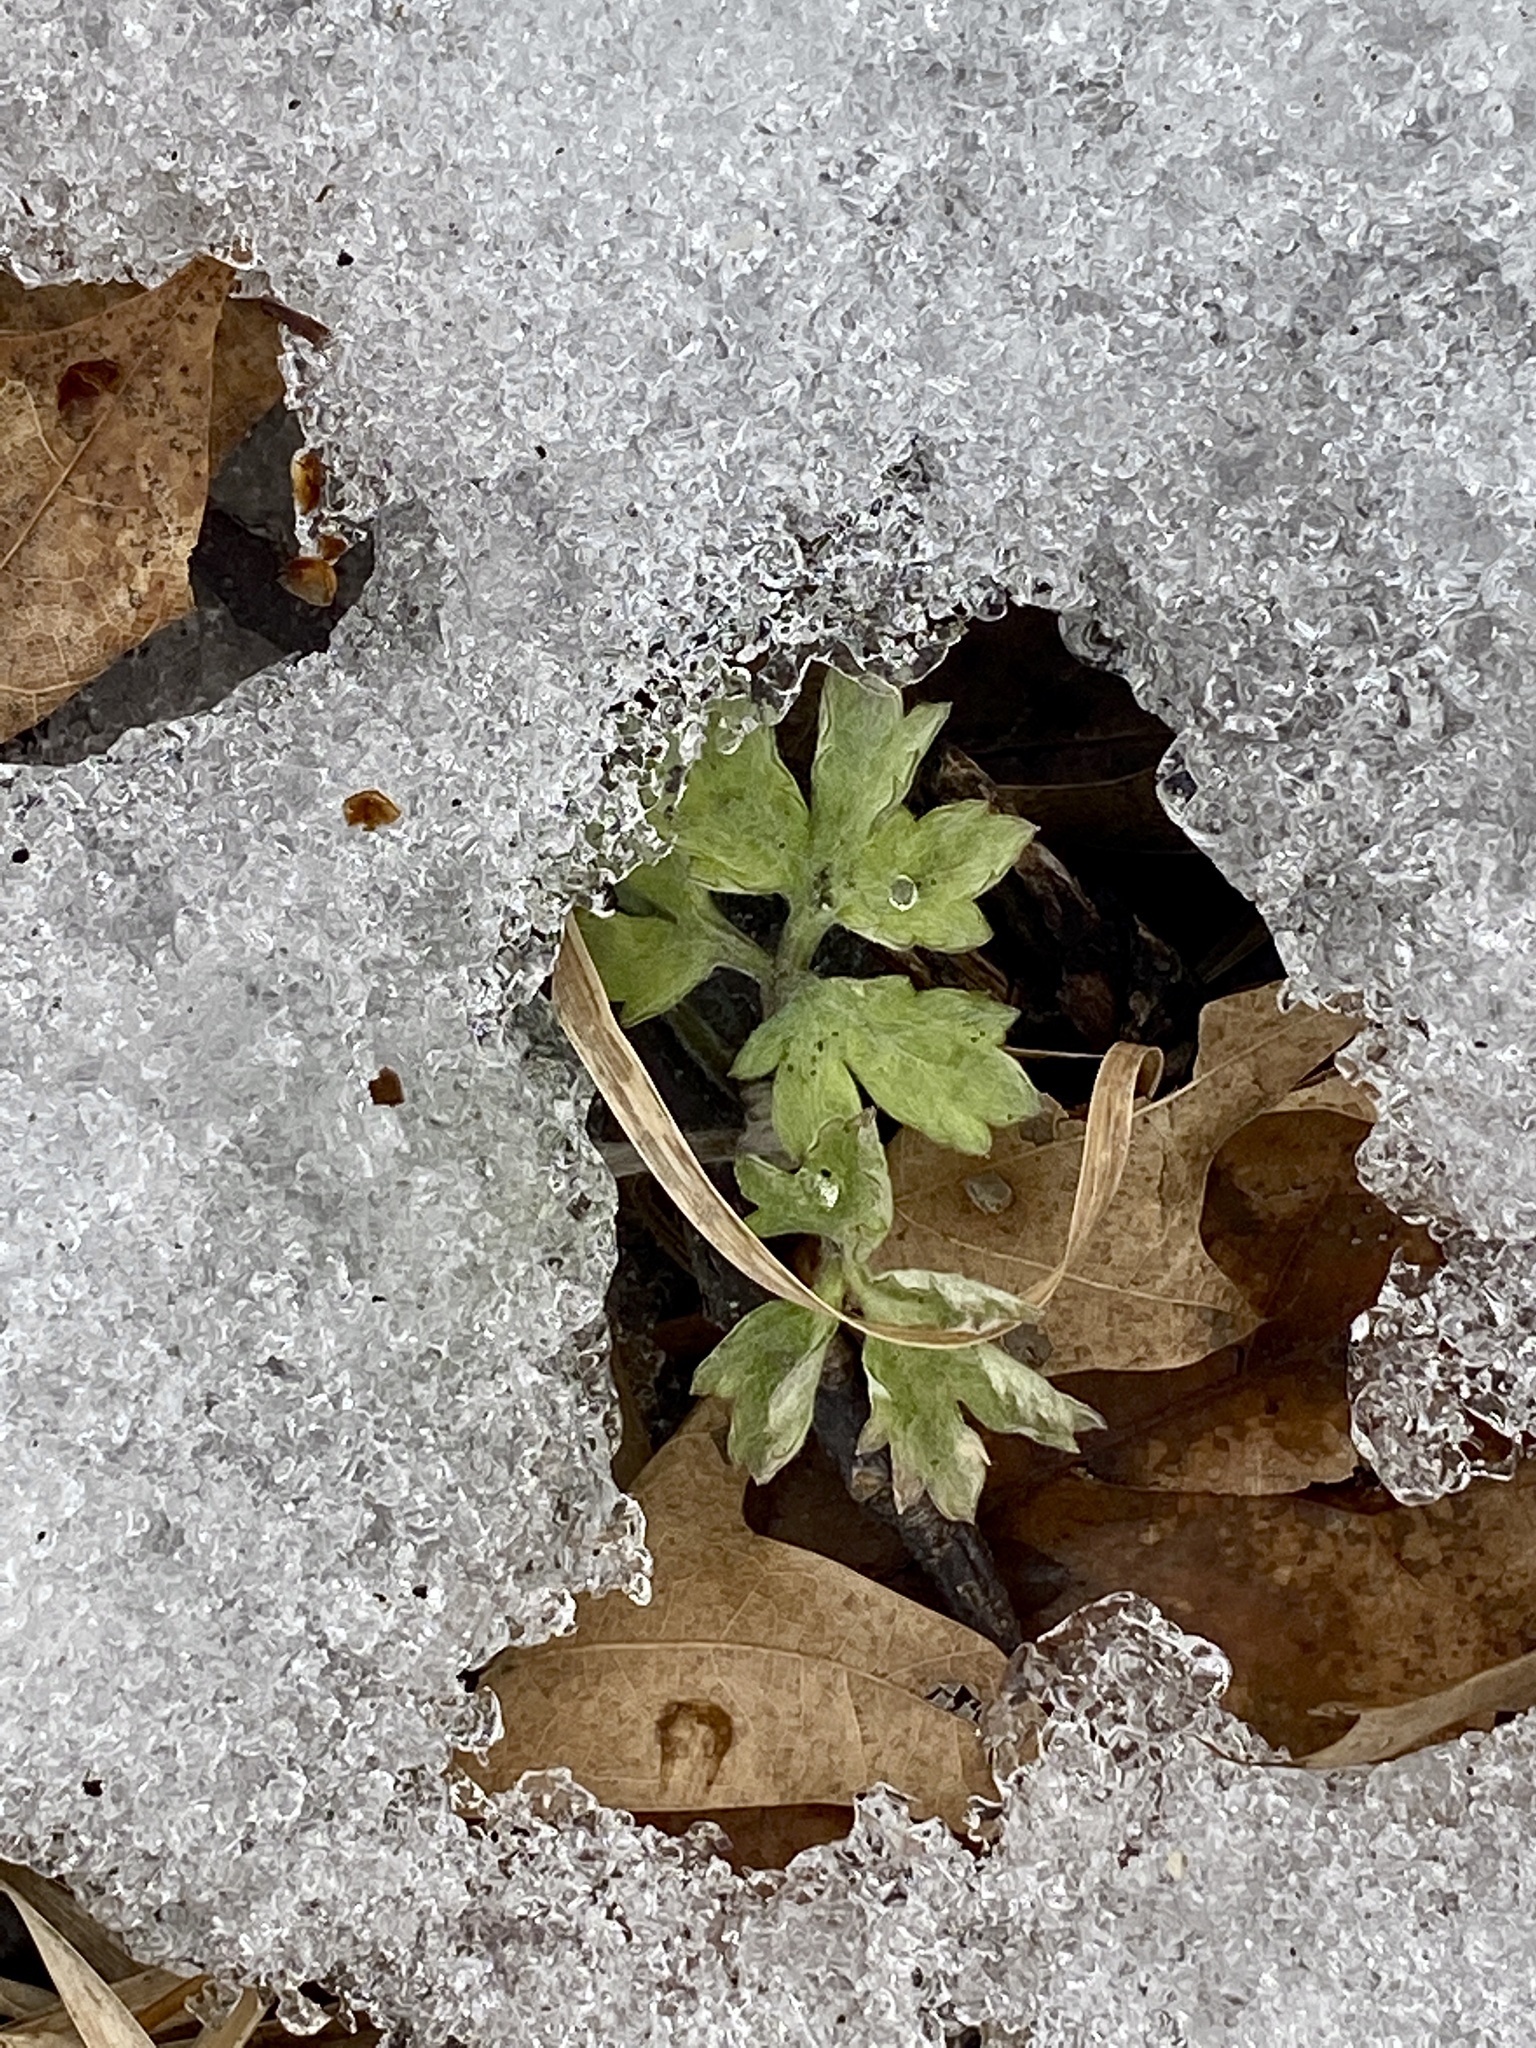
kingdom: Plantae
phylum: Tracheophyta
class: Magnoliopsida
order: Asterales
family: Asteraceae
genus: Artemisia
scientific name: Artemisia vulgaris
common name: Mugwort
